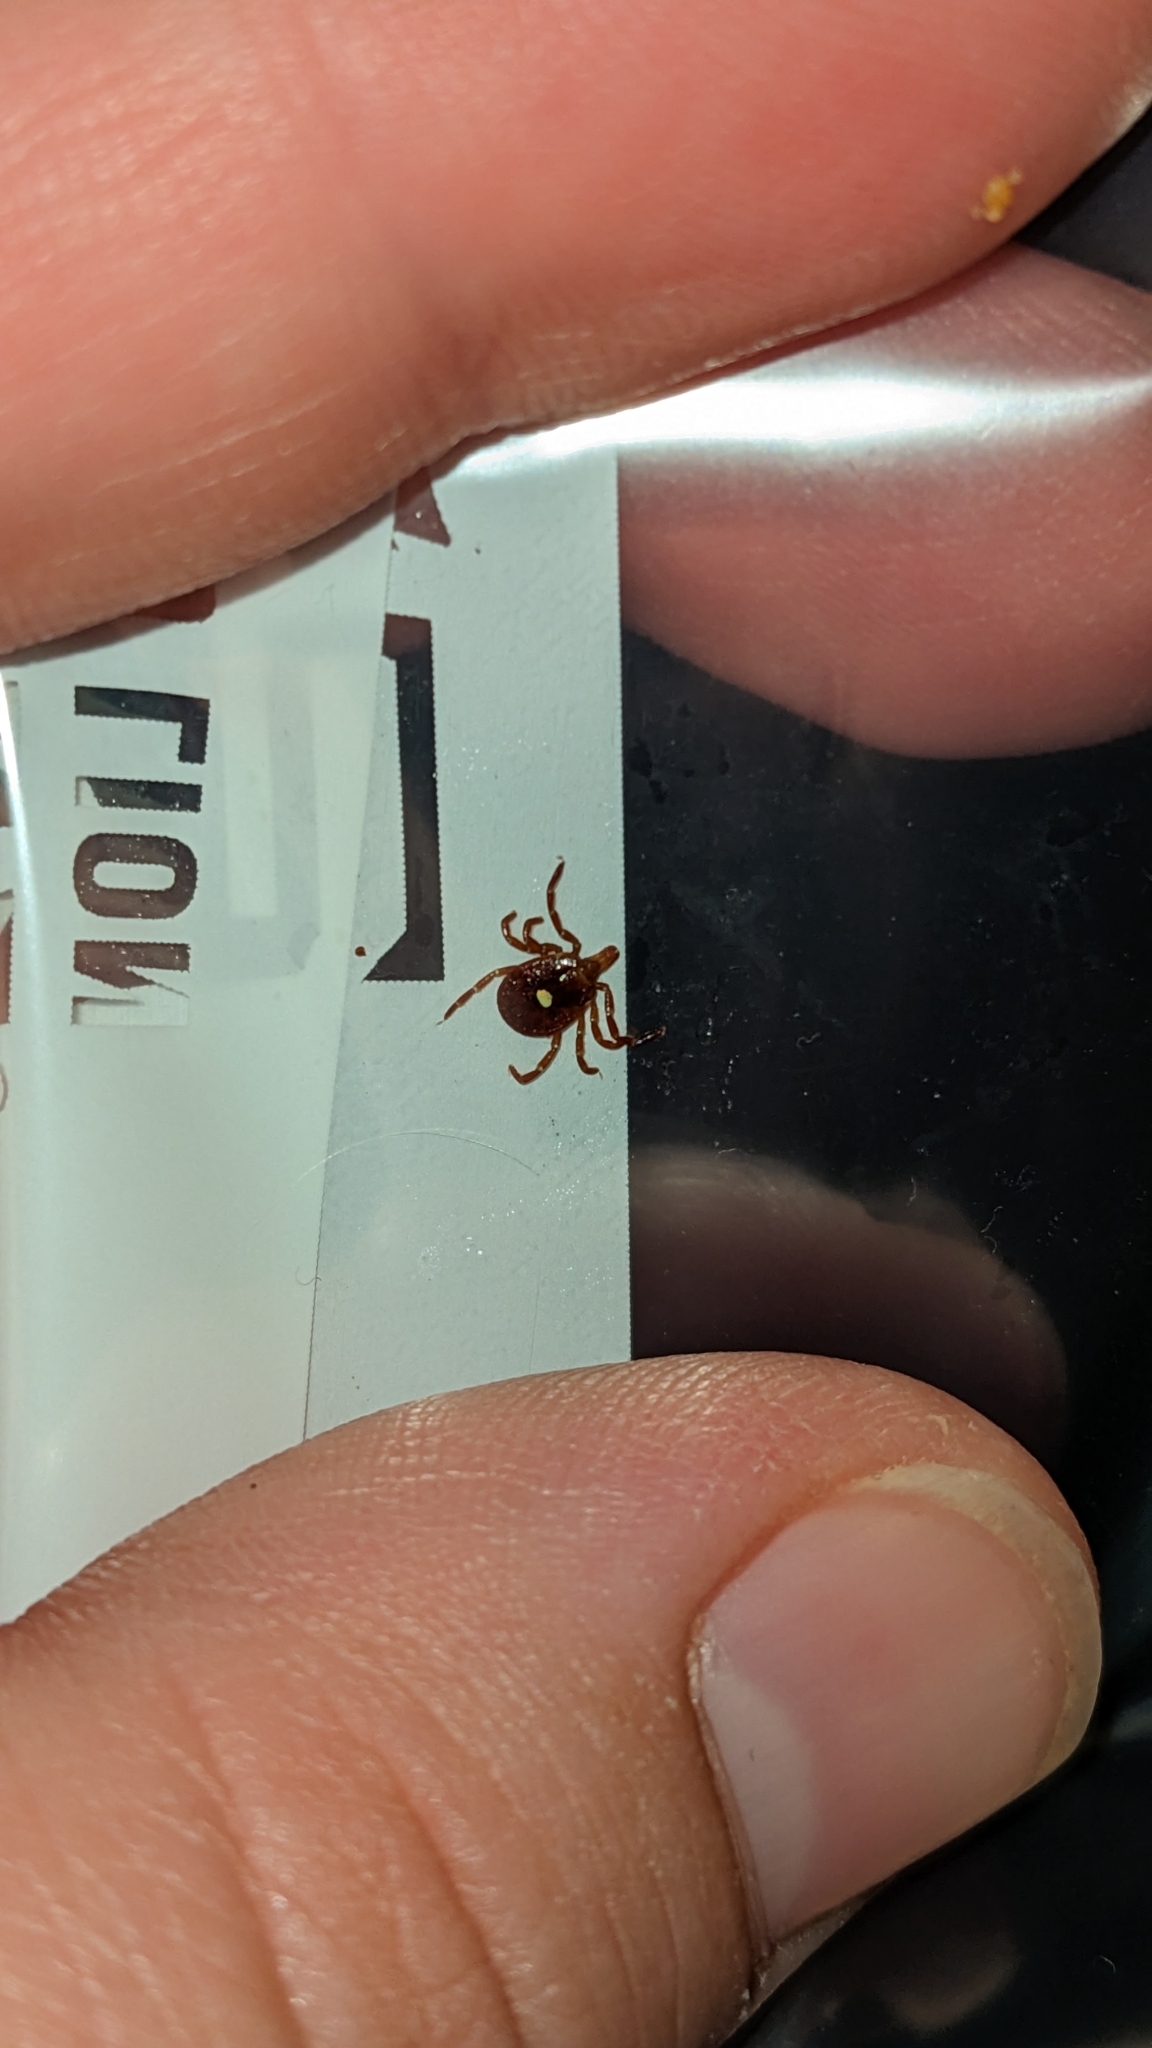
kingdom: Animalia
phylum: Arthropoda
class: Arachnida
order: Ixodida
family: Ixodidae
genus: Amblyomma
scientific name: Amblyomma americanum
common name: Lone star tick
